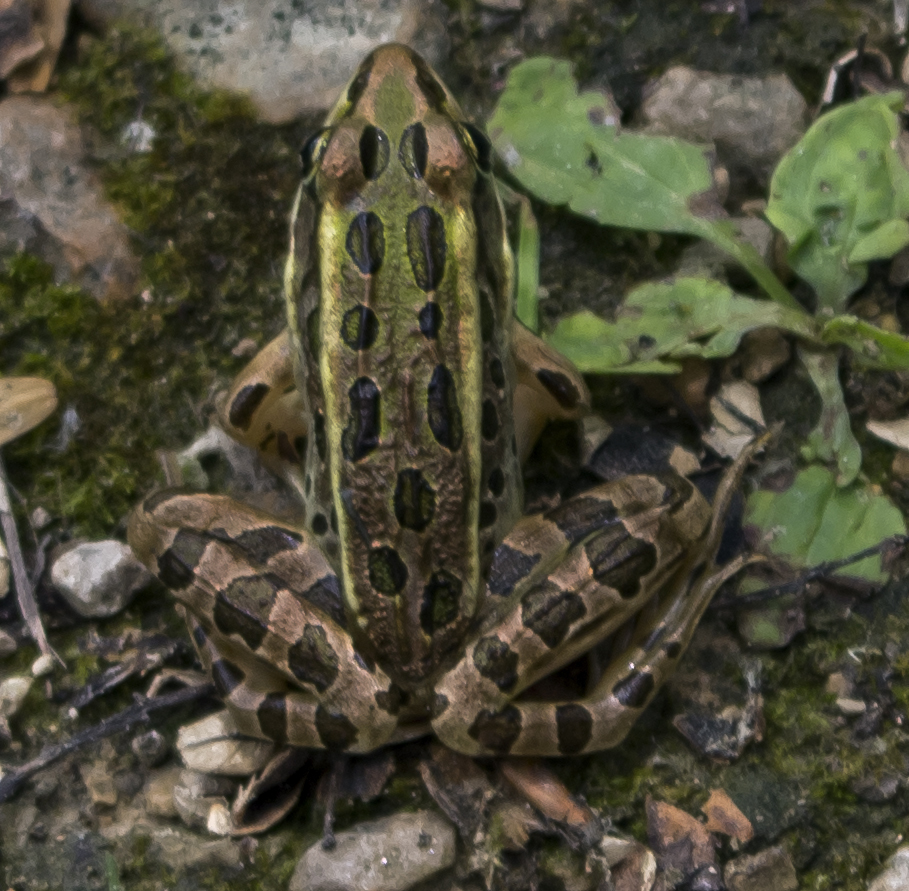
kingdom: Animalia
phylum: Chordata
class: Amphibia
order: Anura
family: Ranidae
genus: Lithobates
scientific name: Lithobates pipiens
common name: Northern leopard frog
